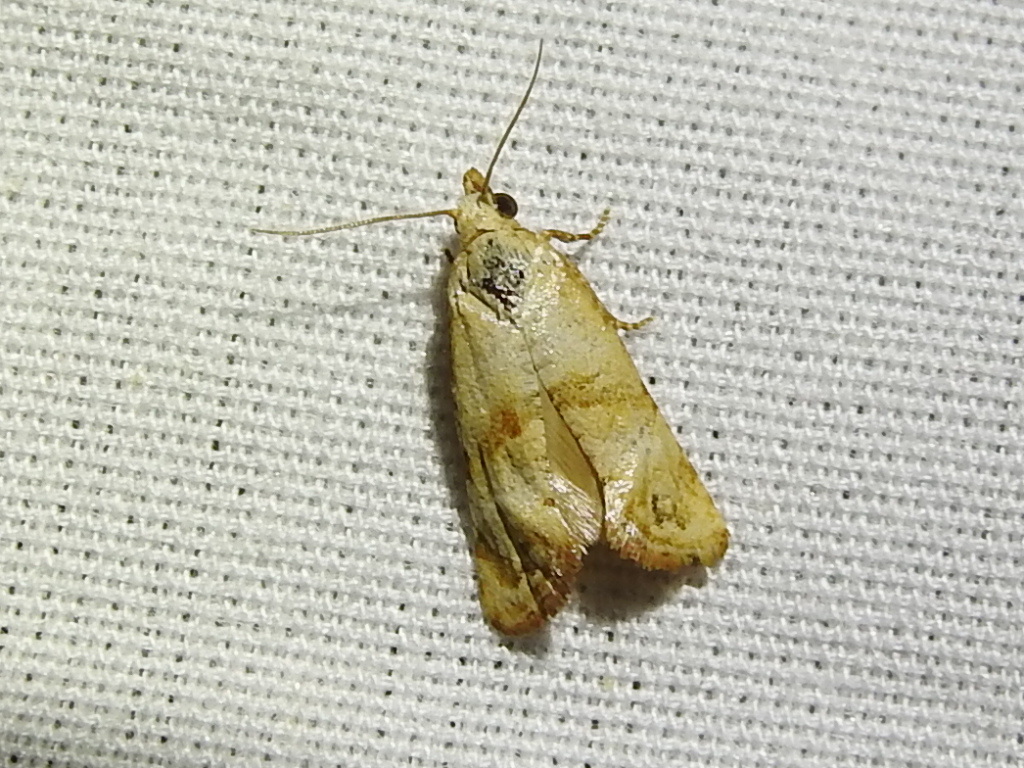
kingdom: Animalia
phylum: Arthropoda
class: Insecta
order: Lepidoptera
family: Tortricidae
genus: Phalonidia
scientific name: Phalonidia Platphalonidia felix
